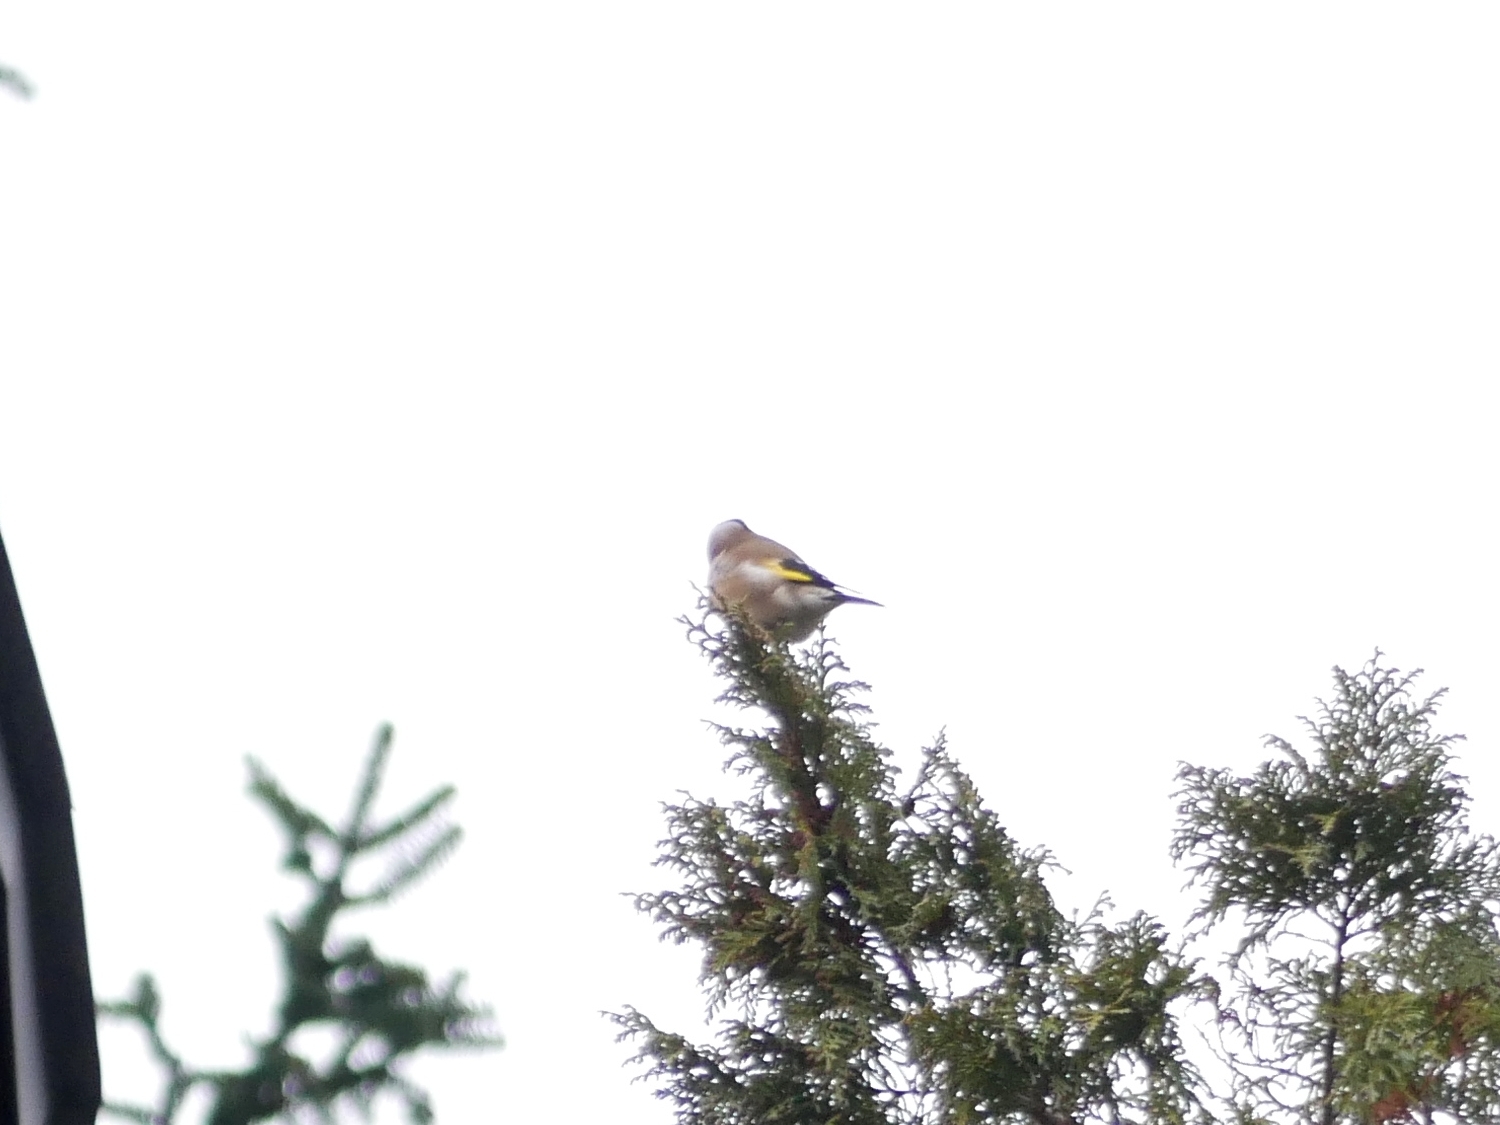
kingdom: Animalia
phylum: Chordata
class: Aves
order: Passeriformes
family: Fringillidae
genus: Carduelis
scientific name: Carduelis carduelis
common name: European goldfinch
